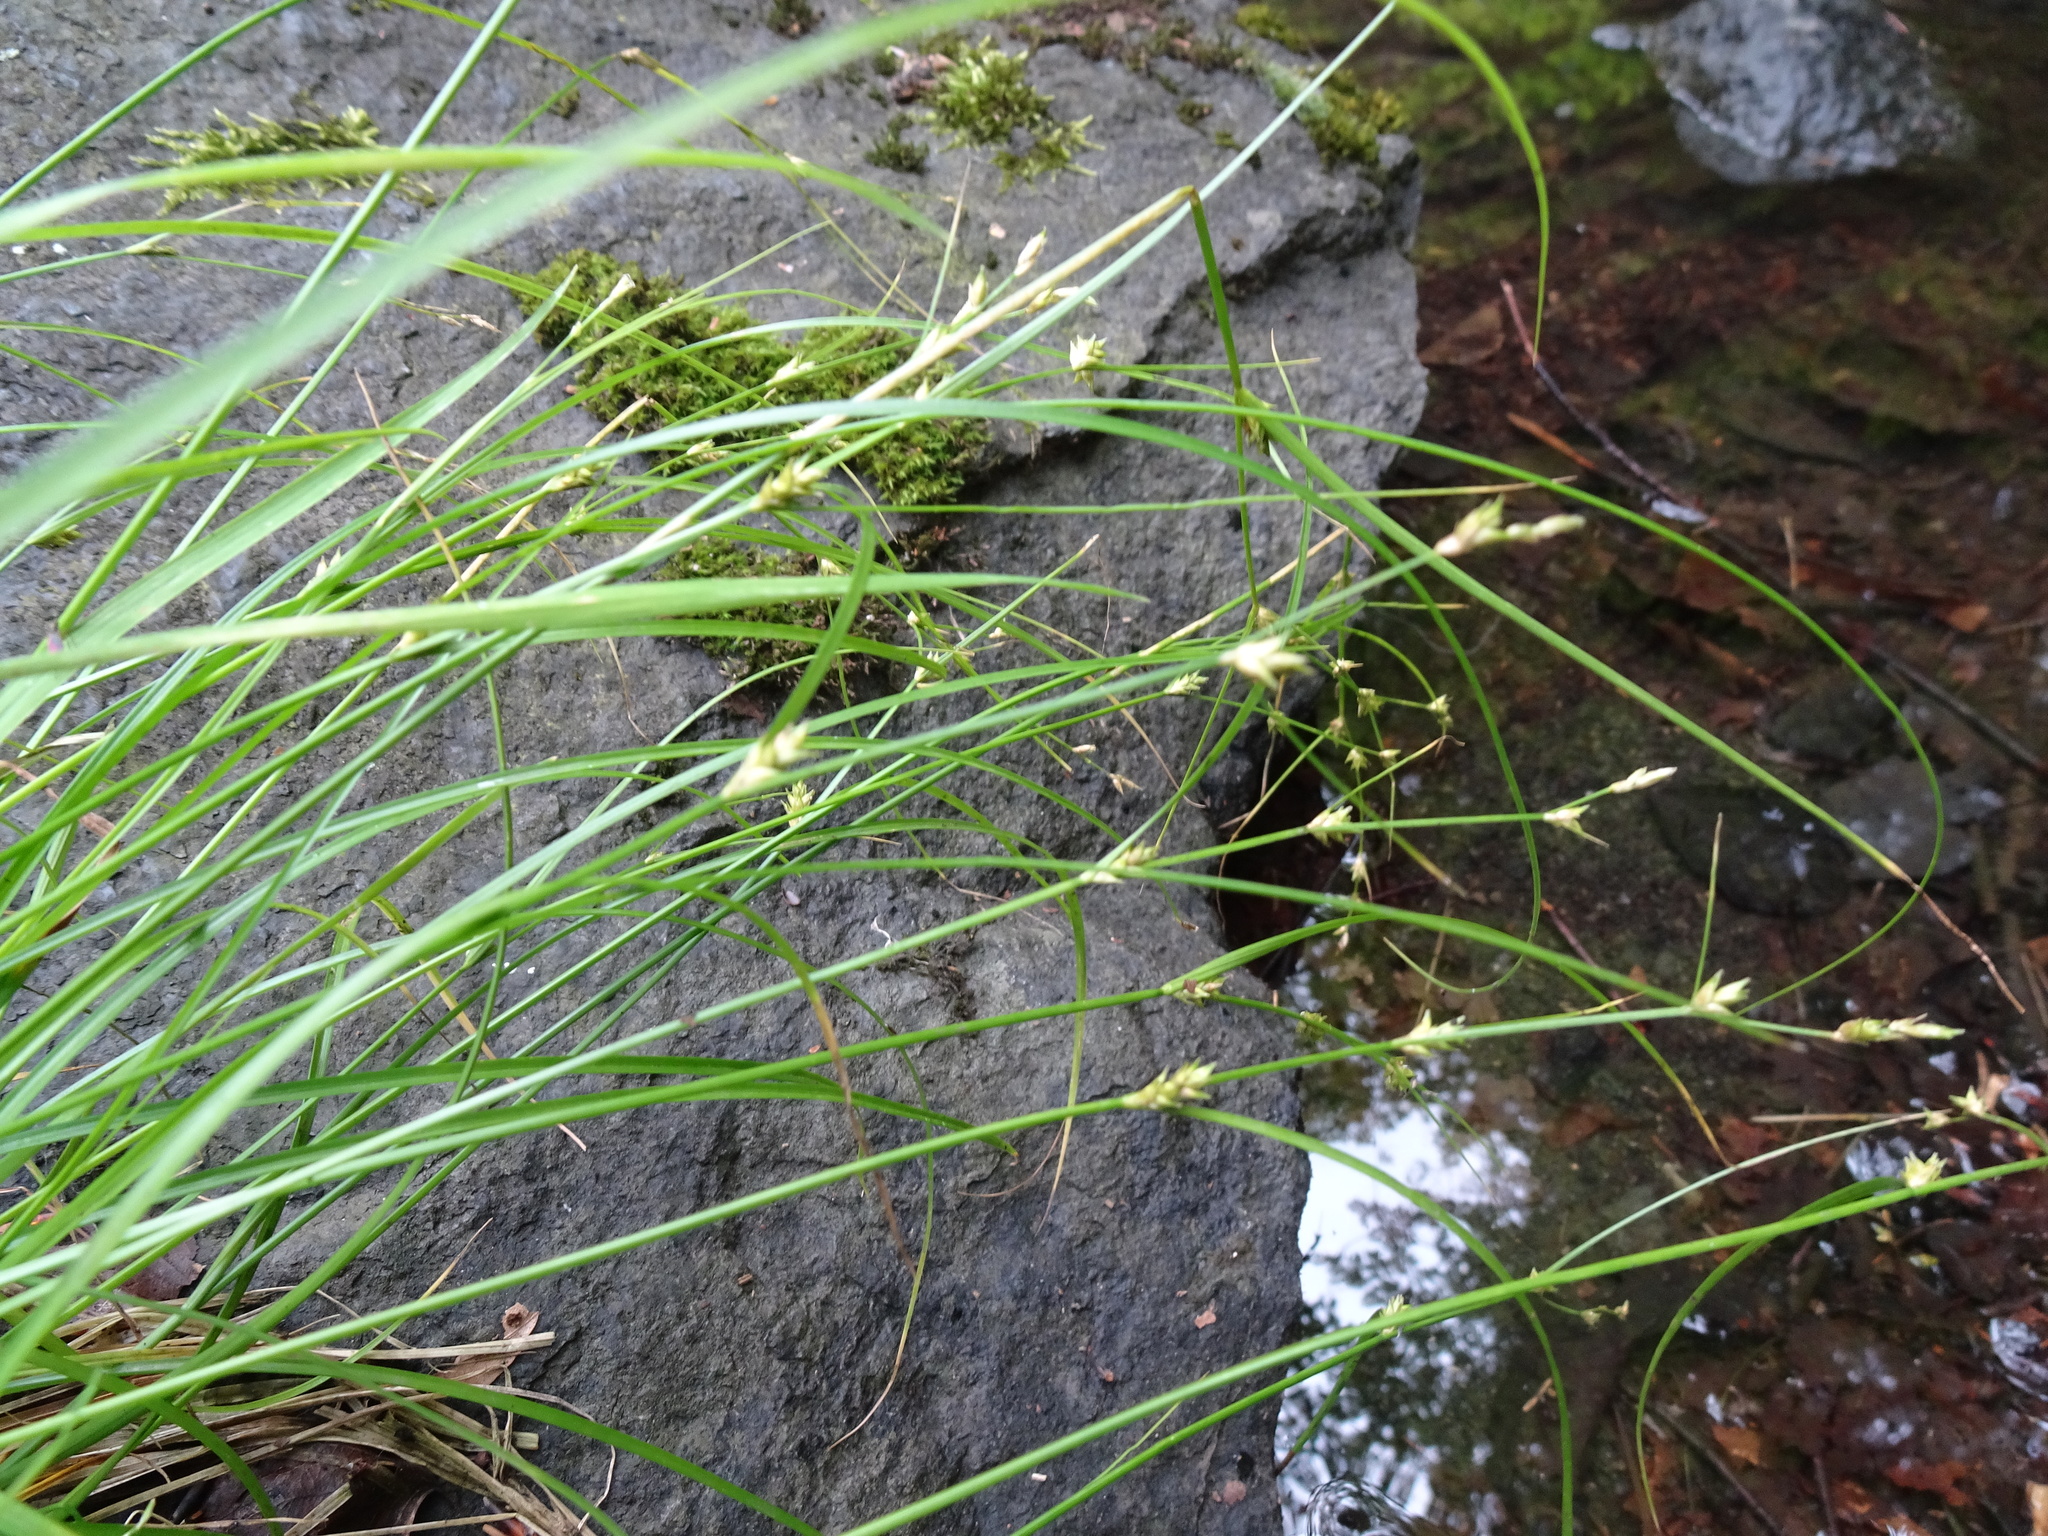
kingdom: Plantae
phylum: Tracheophyta
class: Liliopsida
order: Poales
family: Cyperaceae
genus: Carex
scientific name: Carex remota
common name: Remote sedge
